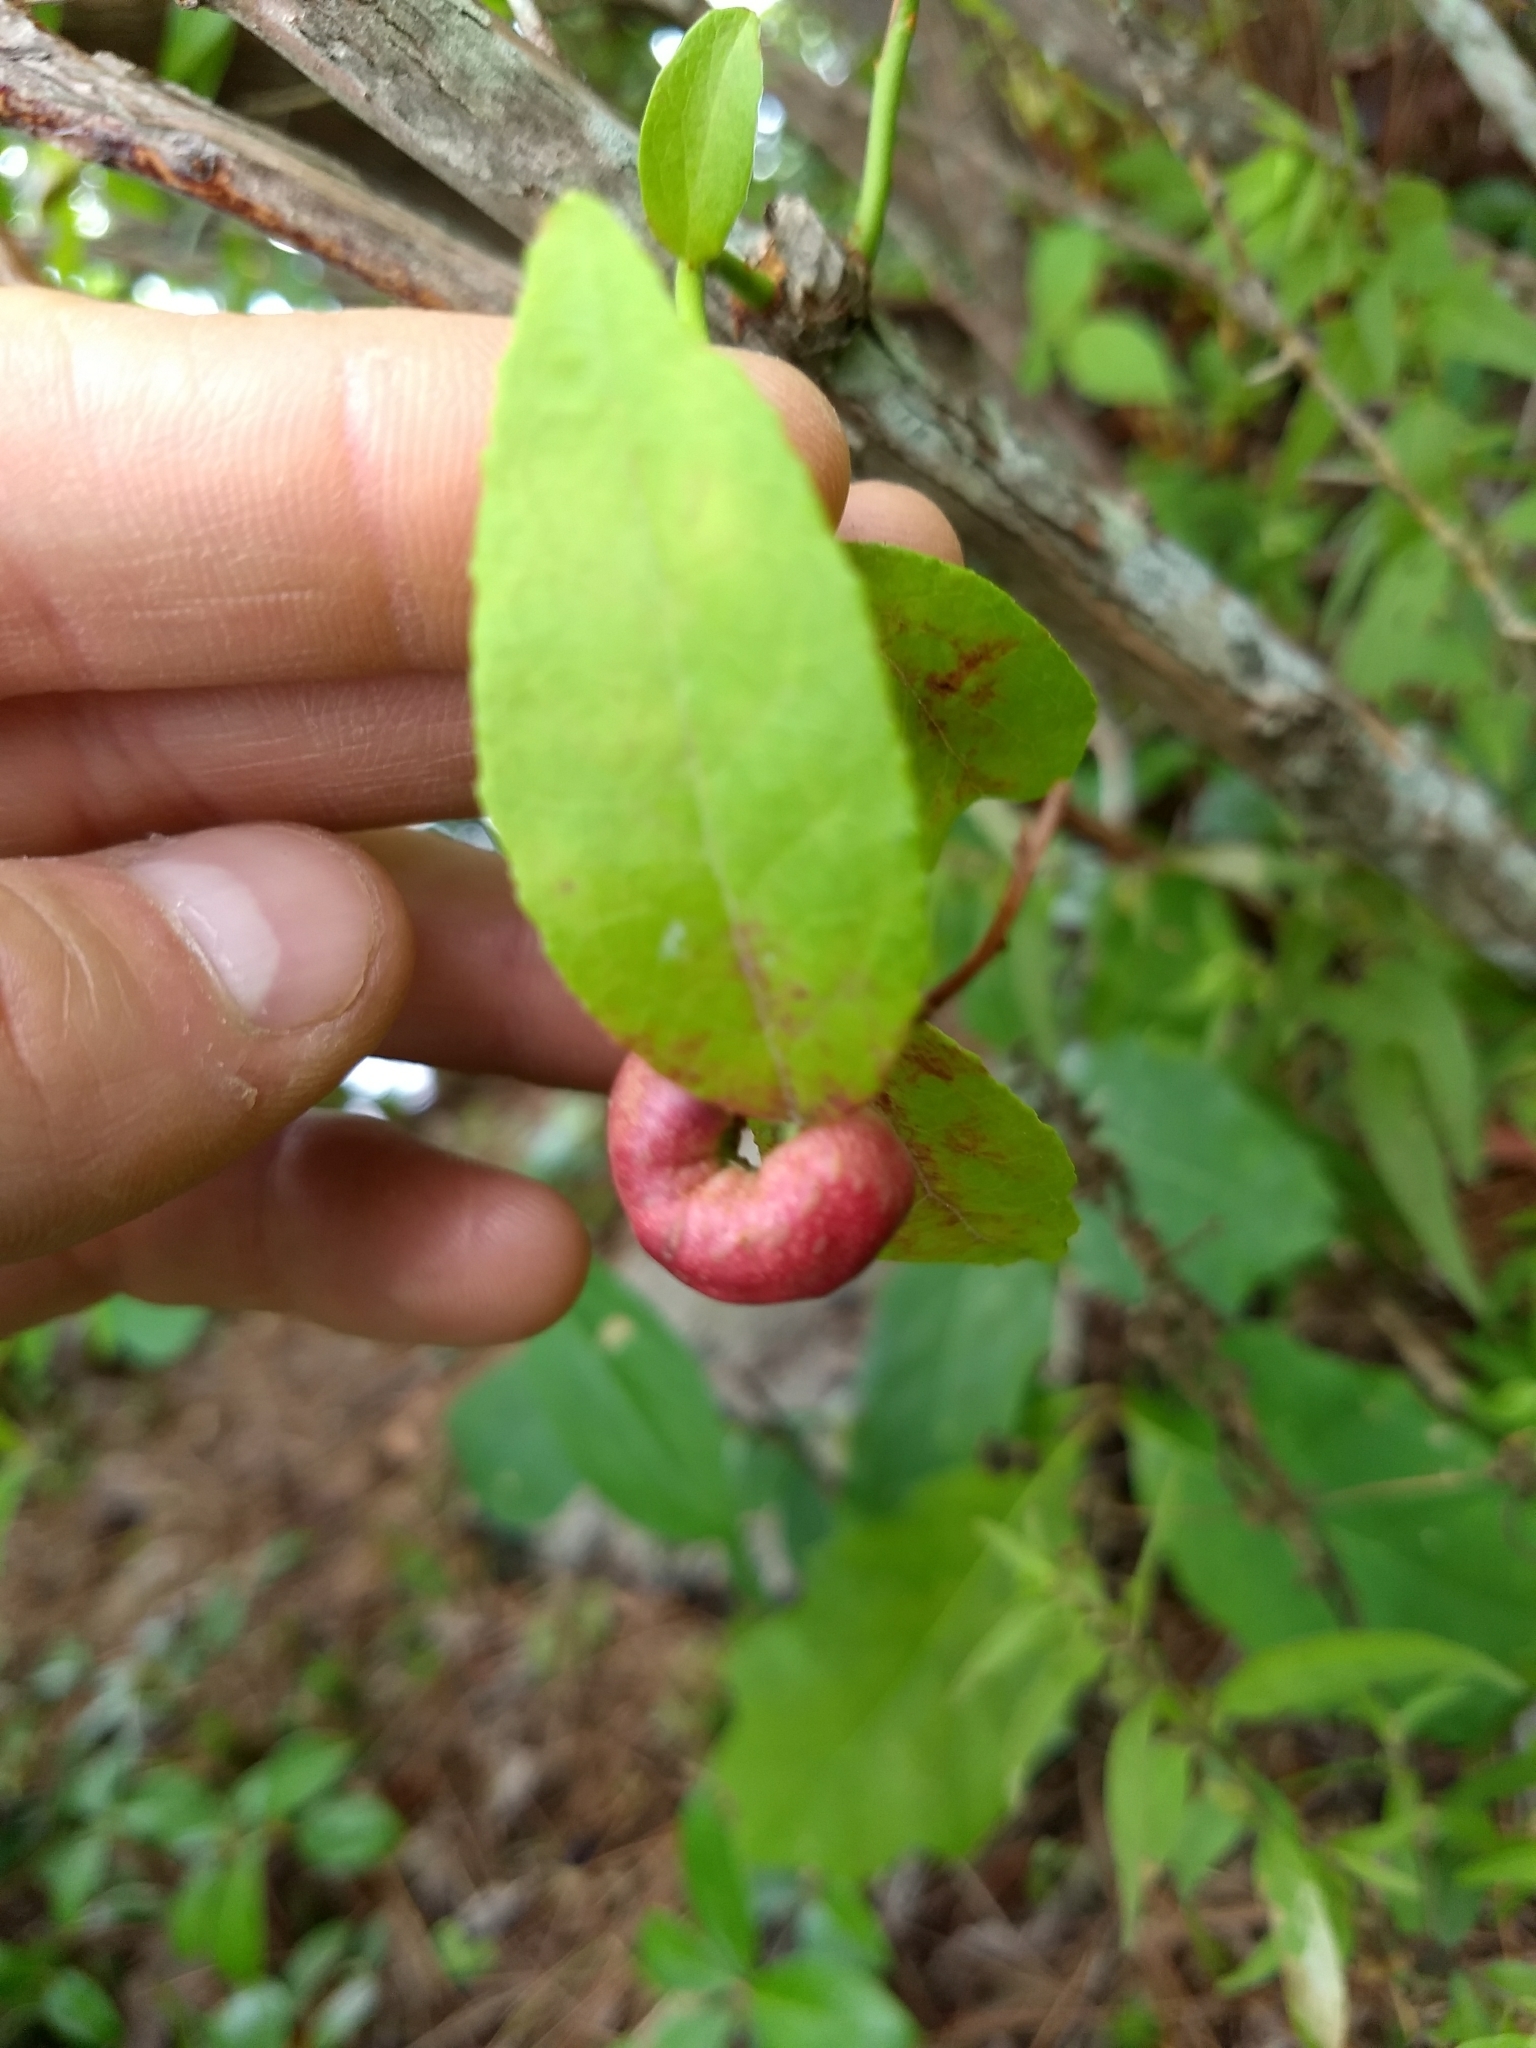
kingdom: Animalia
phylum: Arthropoda
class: Insecta
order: Hymenoptera
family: Pteromalidae
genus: Hemadas
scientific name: Hemadas nubilipennis
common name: Blueberry stem gall wasp
